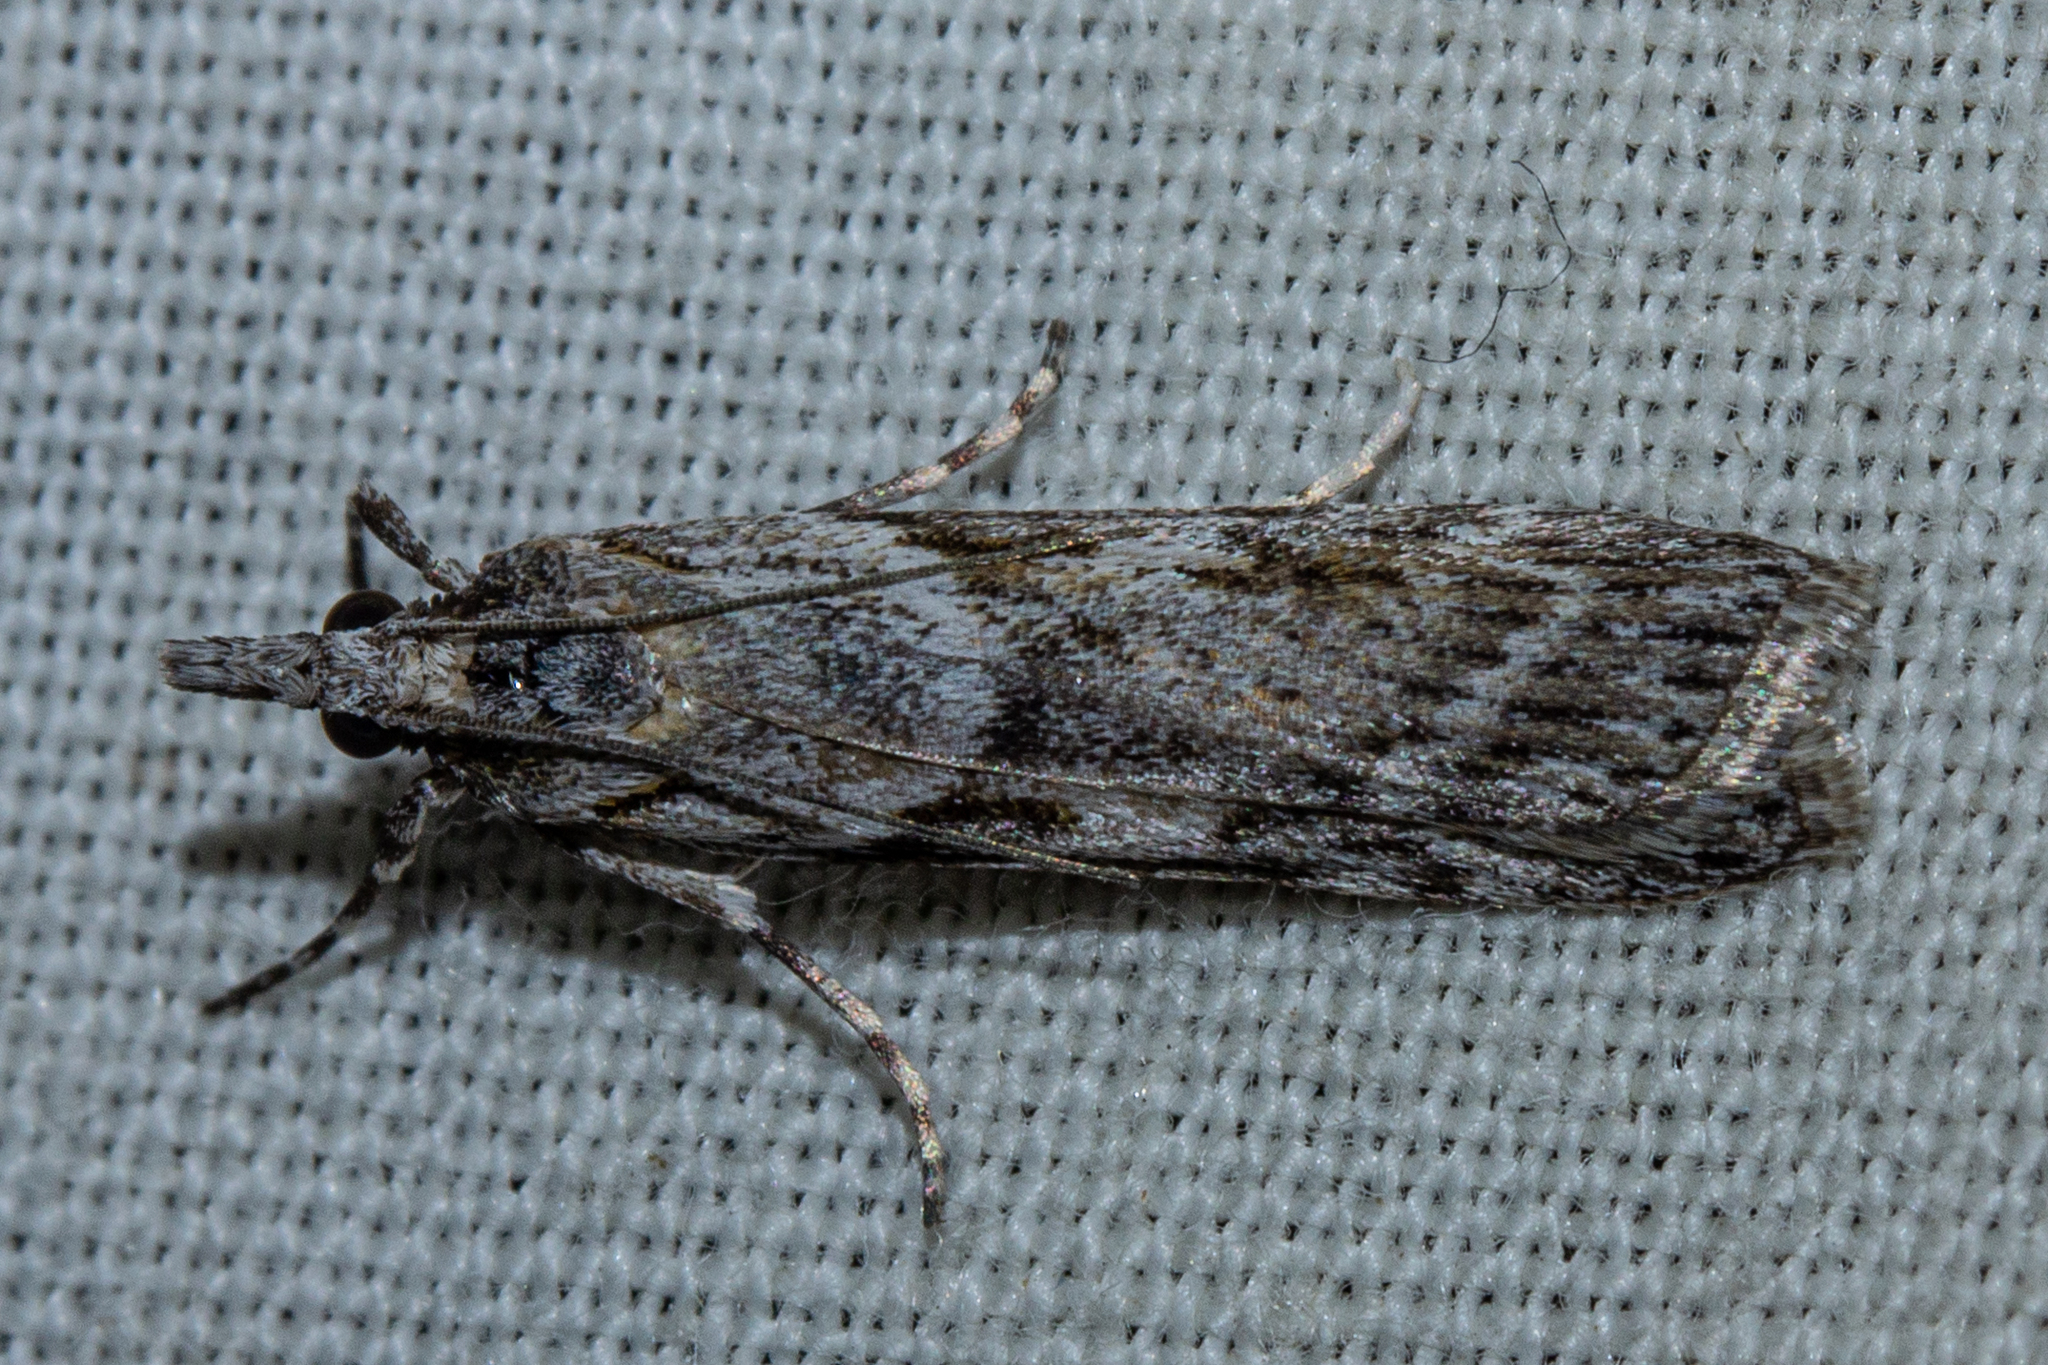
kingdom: Animalia
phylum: Arthropoda
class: Insecta
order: Lepidoptera
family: Crambidae
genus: Scoparia
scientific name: Scoparia halopis
